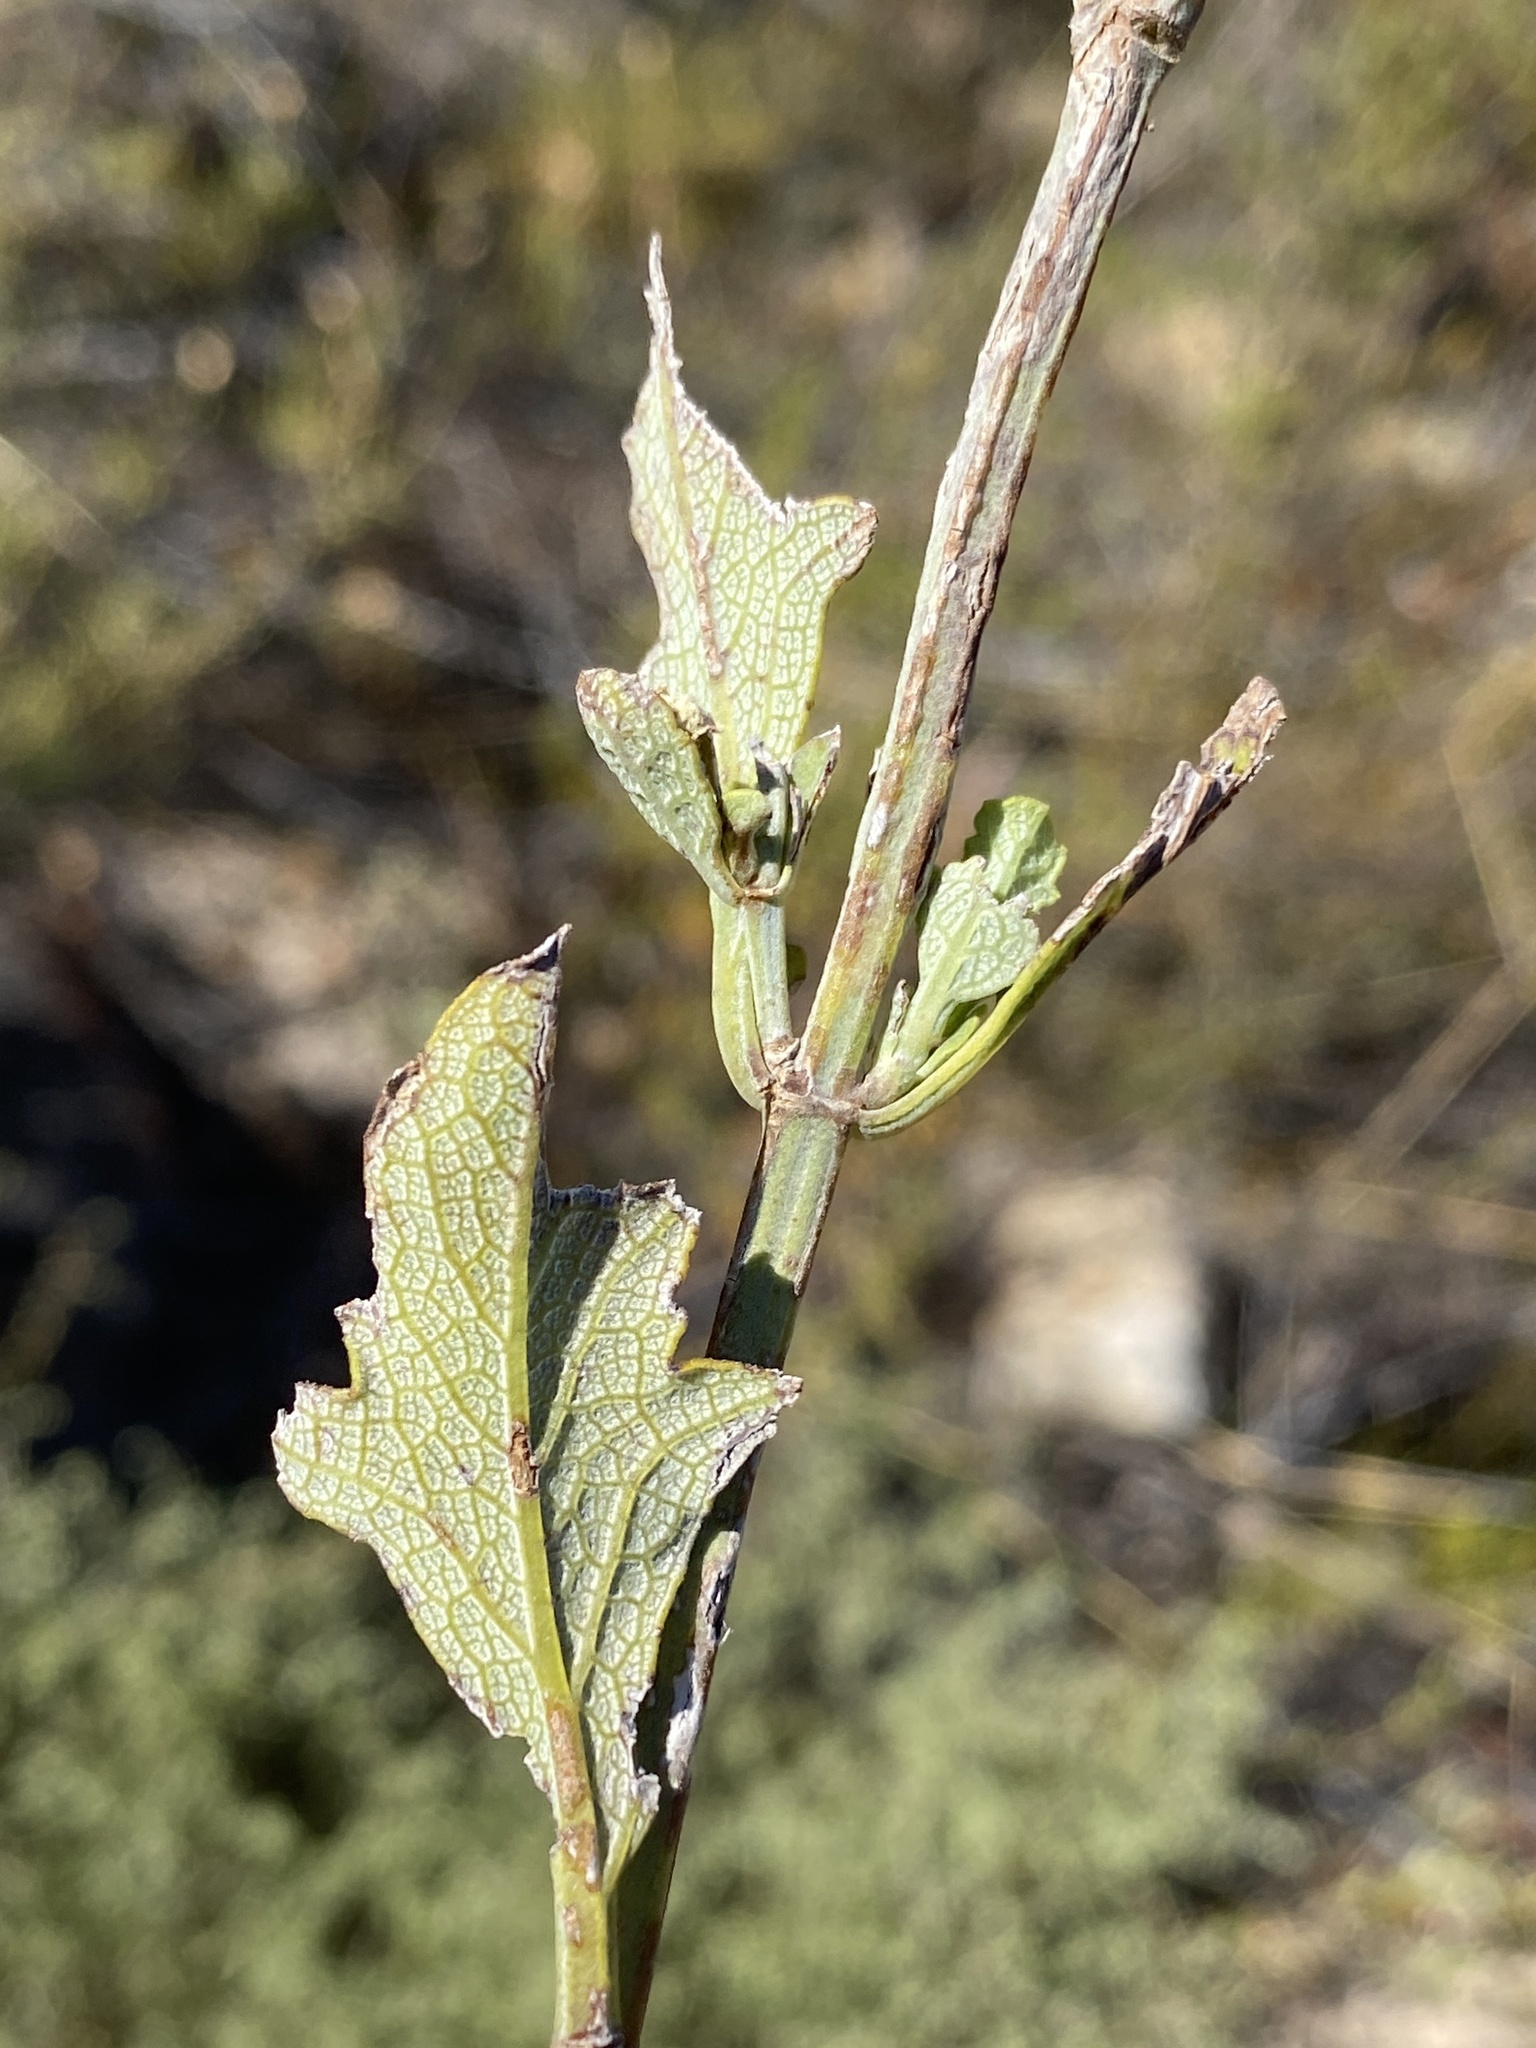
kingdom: Plantae
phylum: Tracheophyta
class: Magnoliopsida
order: Lamiales
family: Lamiaceae
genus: Salvia
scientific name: Salvia albicaulis
